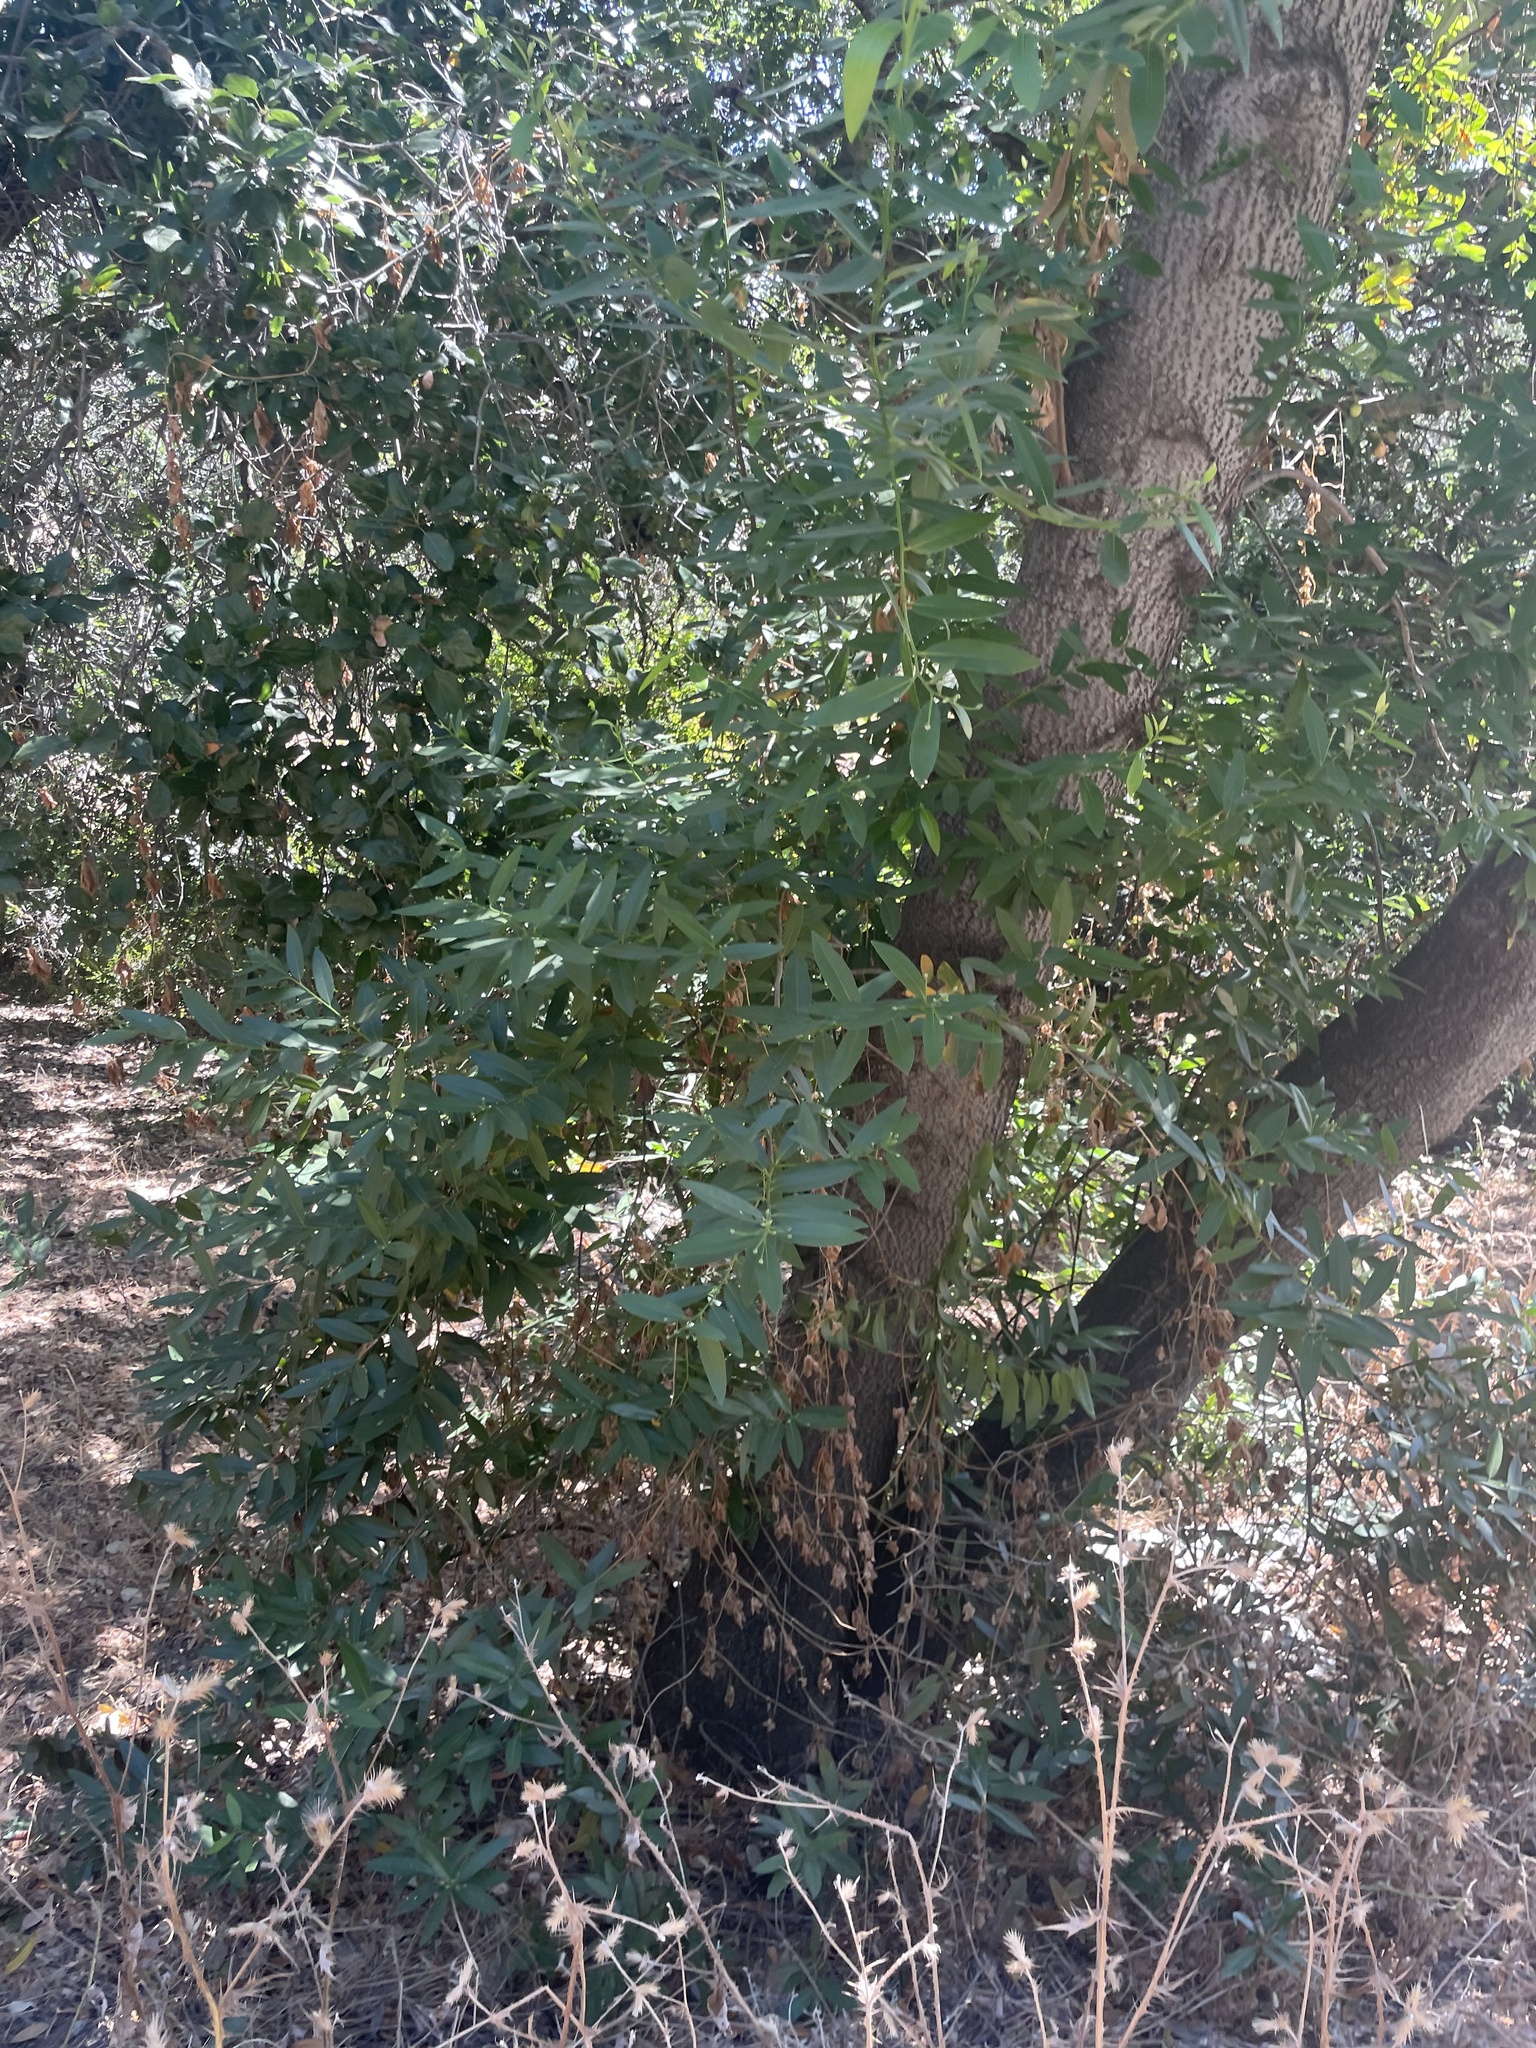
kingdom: Plantae
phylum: Tracheophyta
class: Magnoliopsida
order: Laurales
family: Lauraceae
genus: Umbellularia
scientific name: Umbellularia californica
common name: California bay
